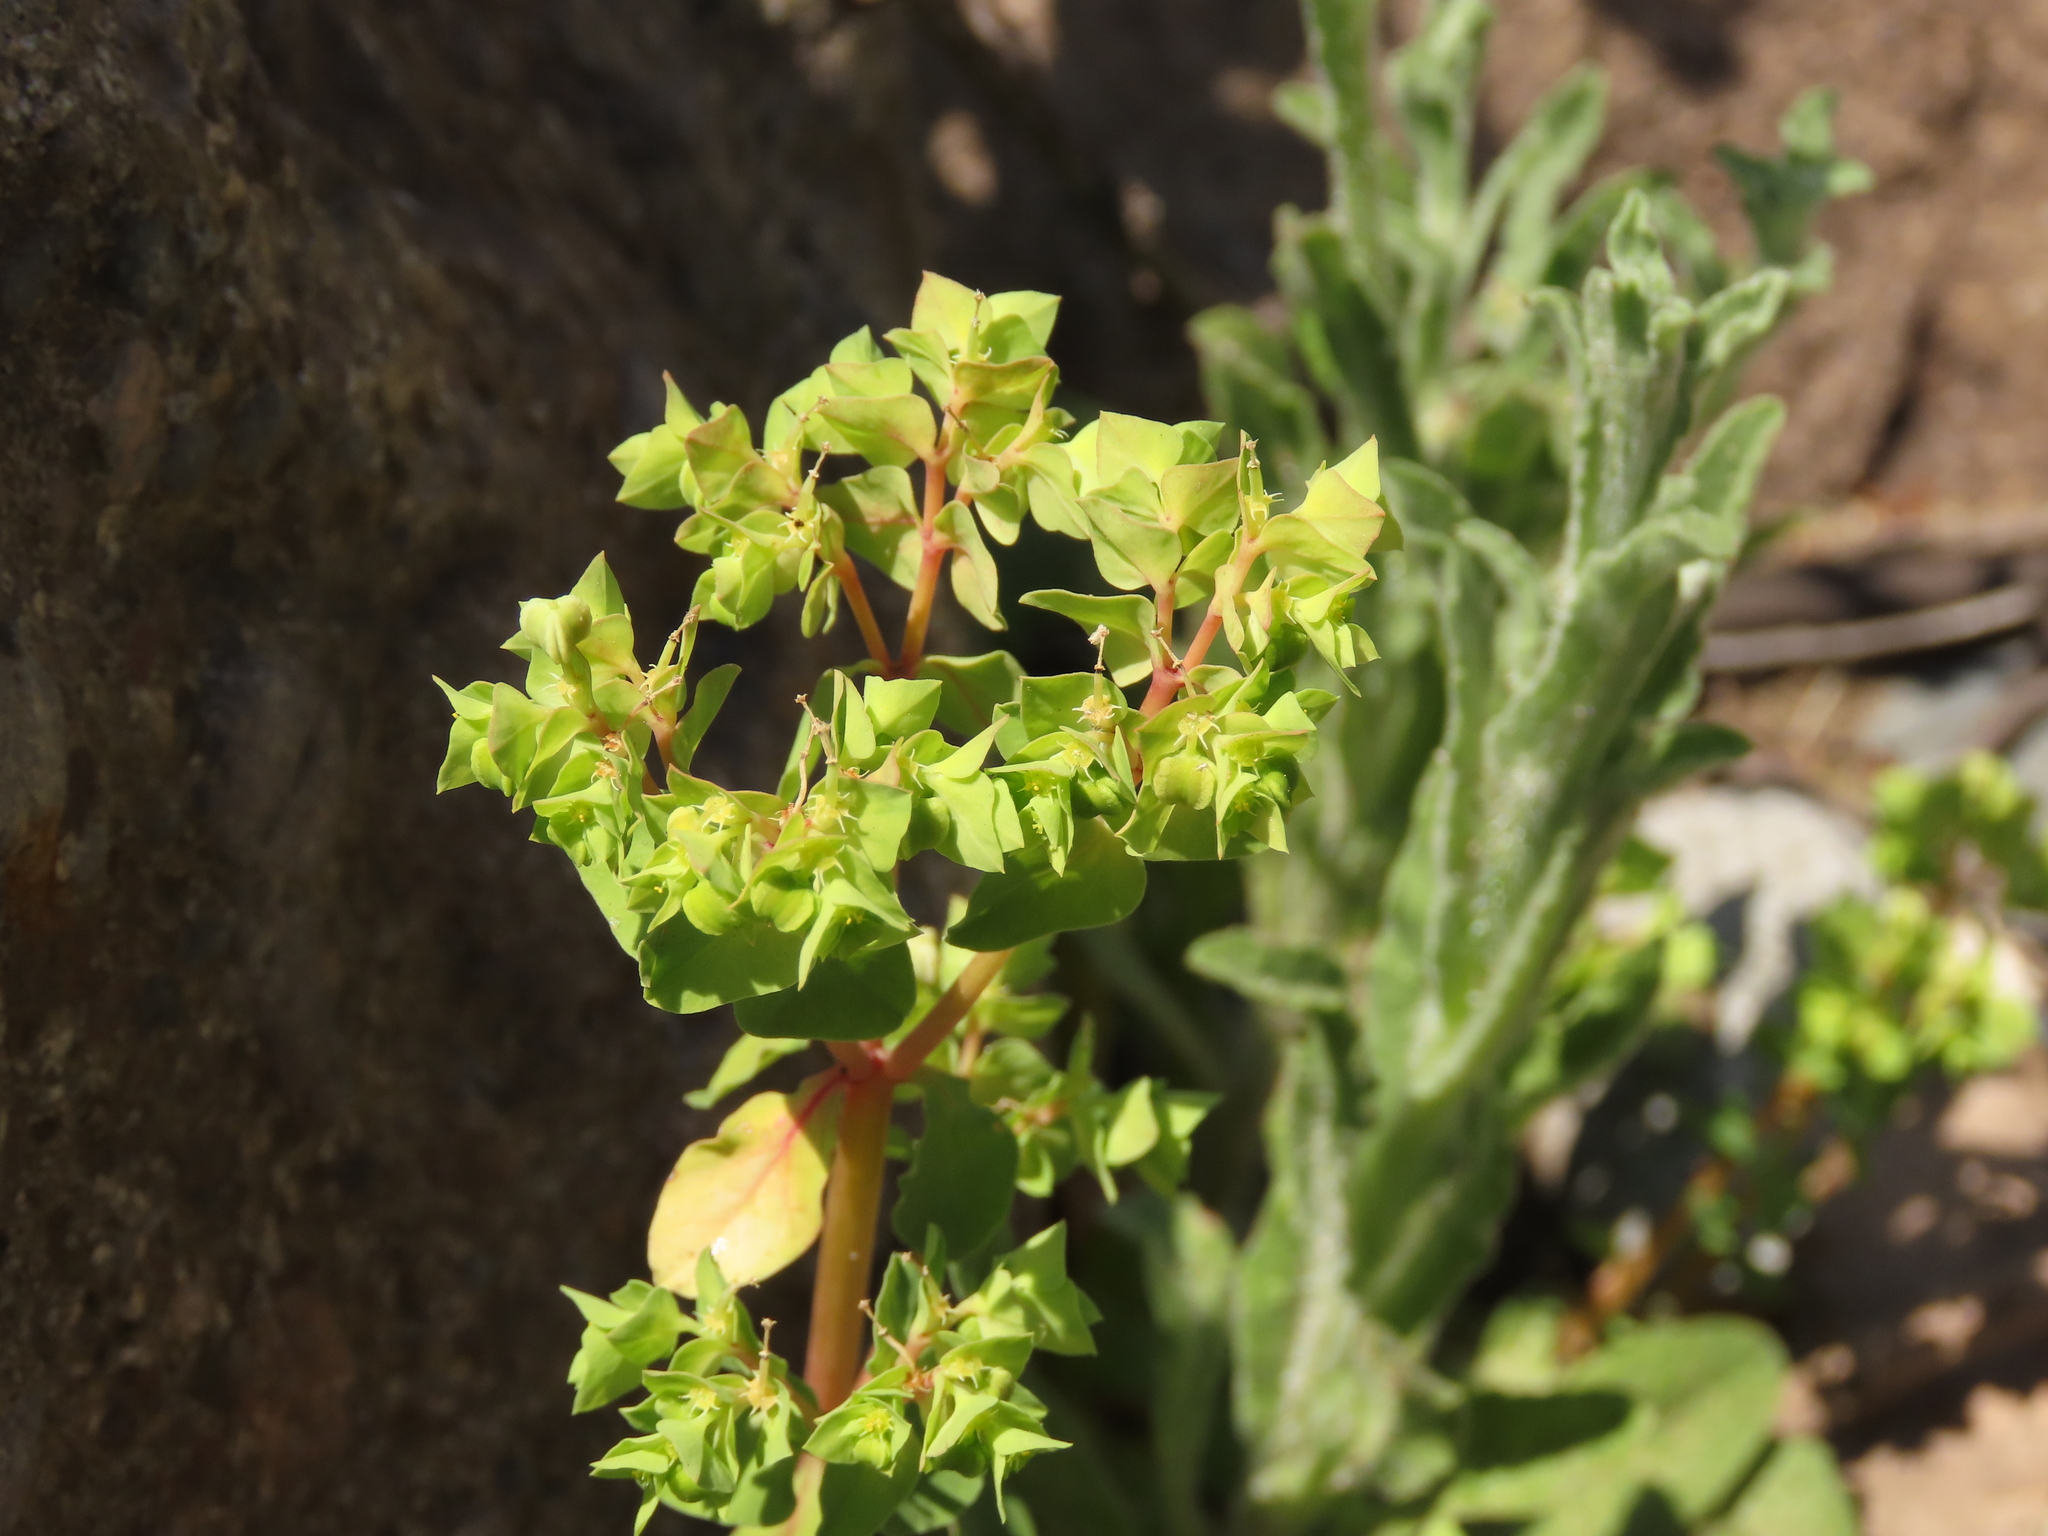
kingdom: Plantae
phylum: Tracheophyta
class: Magnoliopsida
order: Malpighiales
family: Euphorbiaceae
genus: Euphorbia
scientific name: Euphorbia peplus
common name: Petty spurge
